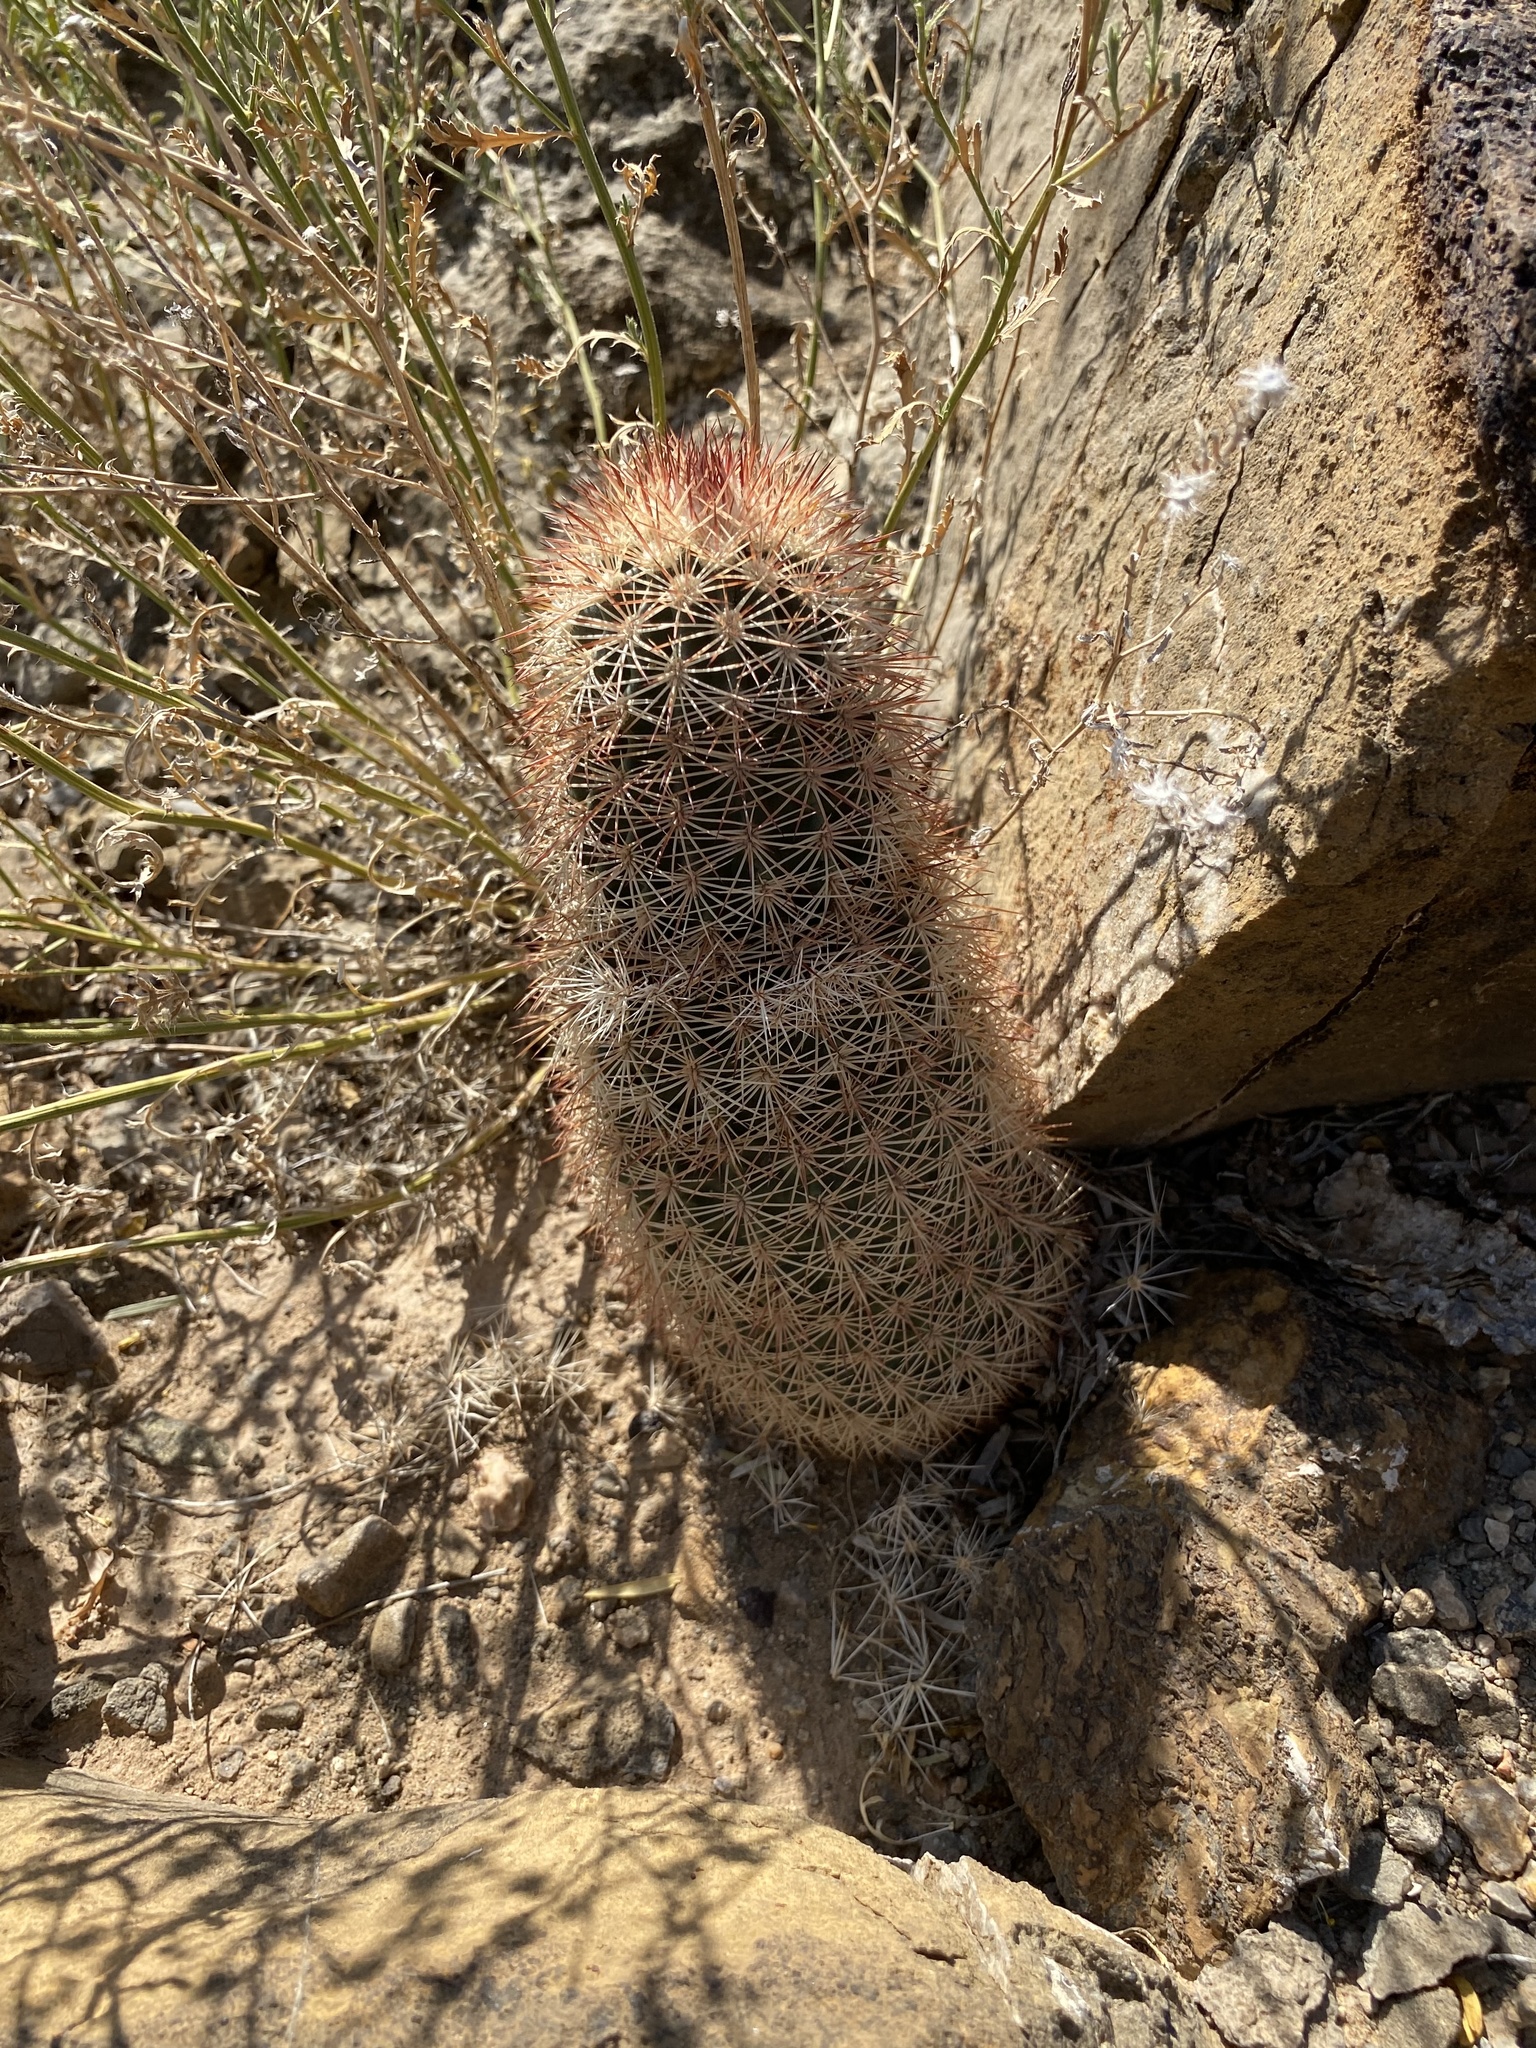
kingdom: Plantae
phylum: Tracheophyta
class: Magnoliopsida
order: Caryophyllales
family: Cactaceae
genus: Echinocereus
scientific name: Echinocereus dasyacanthus
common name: Spiny hedgehog cactus
